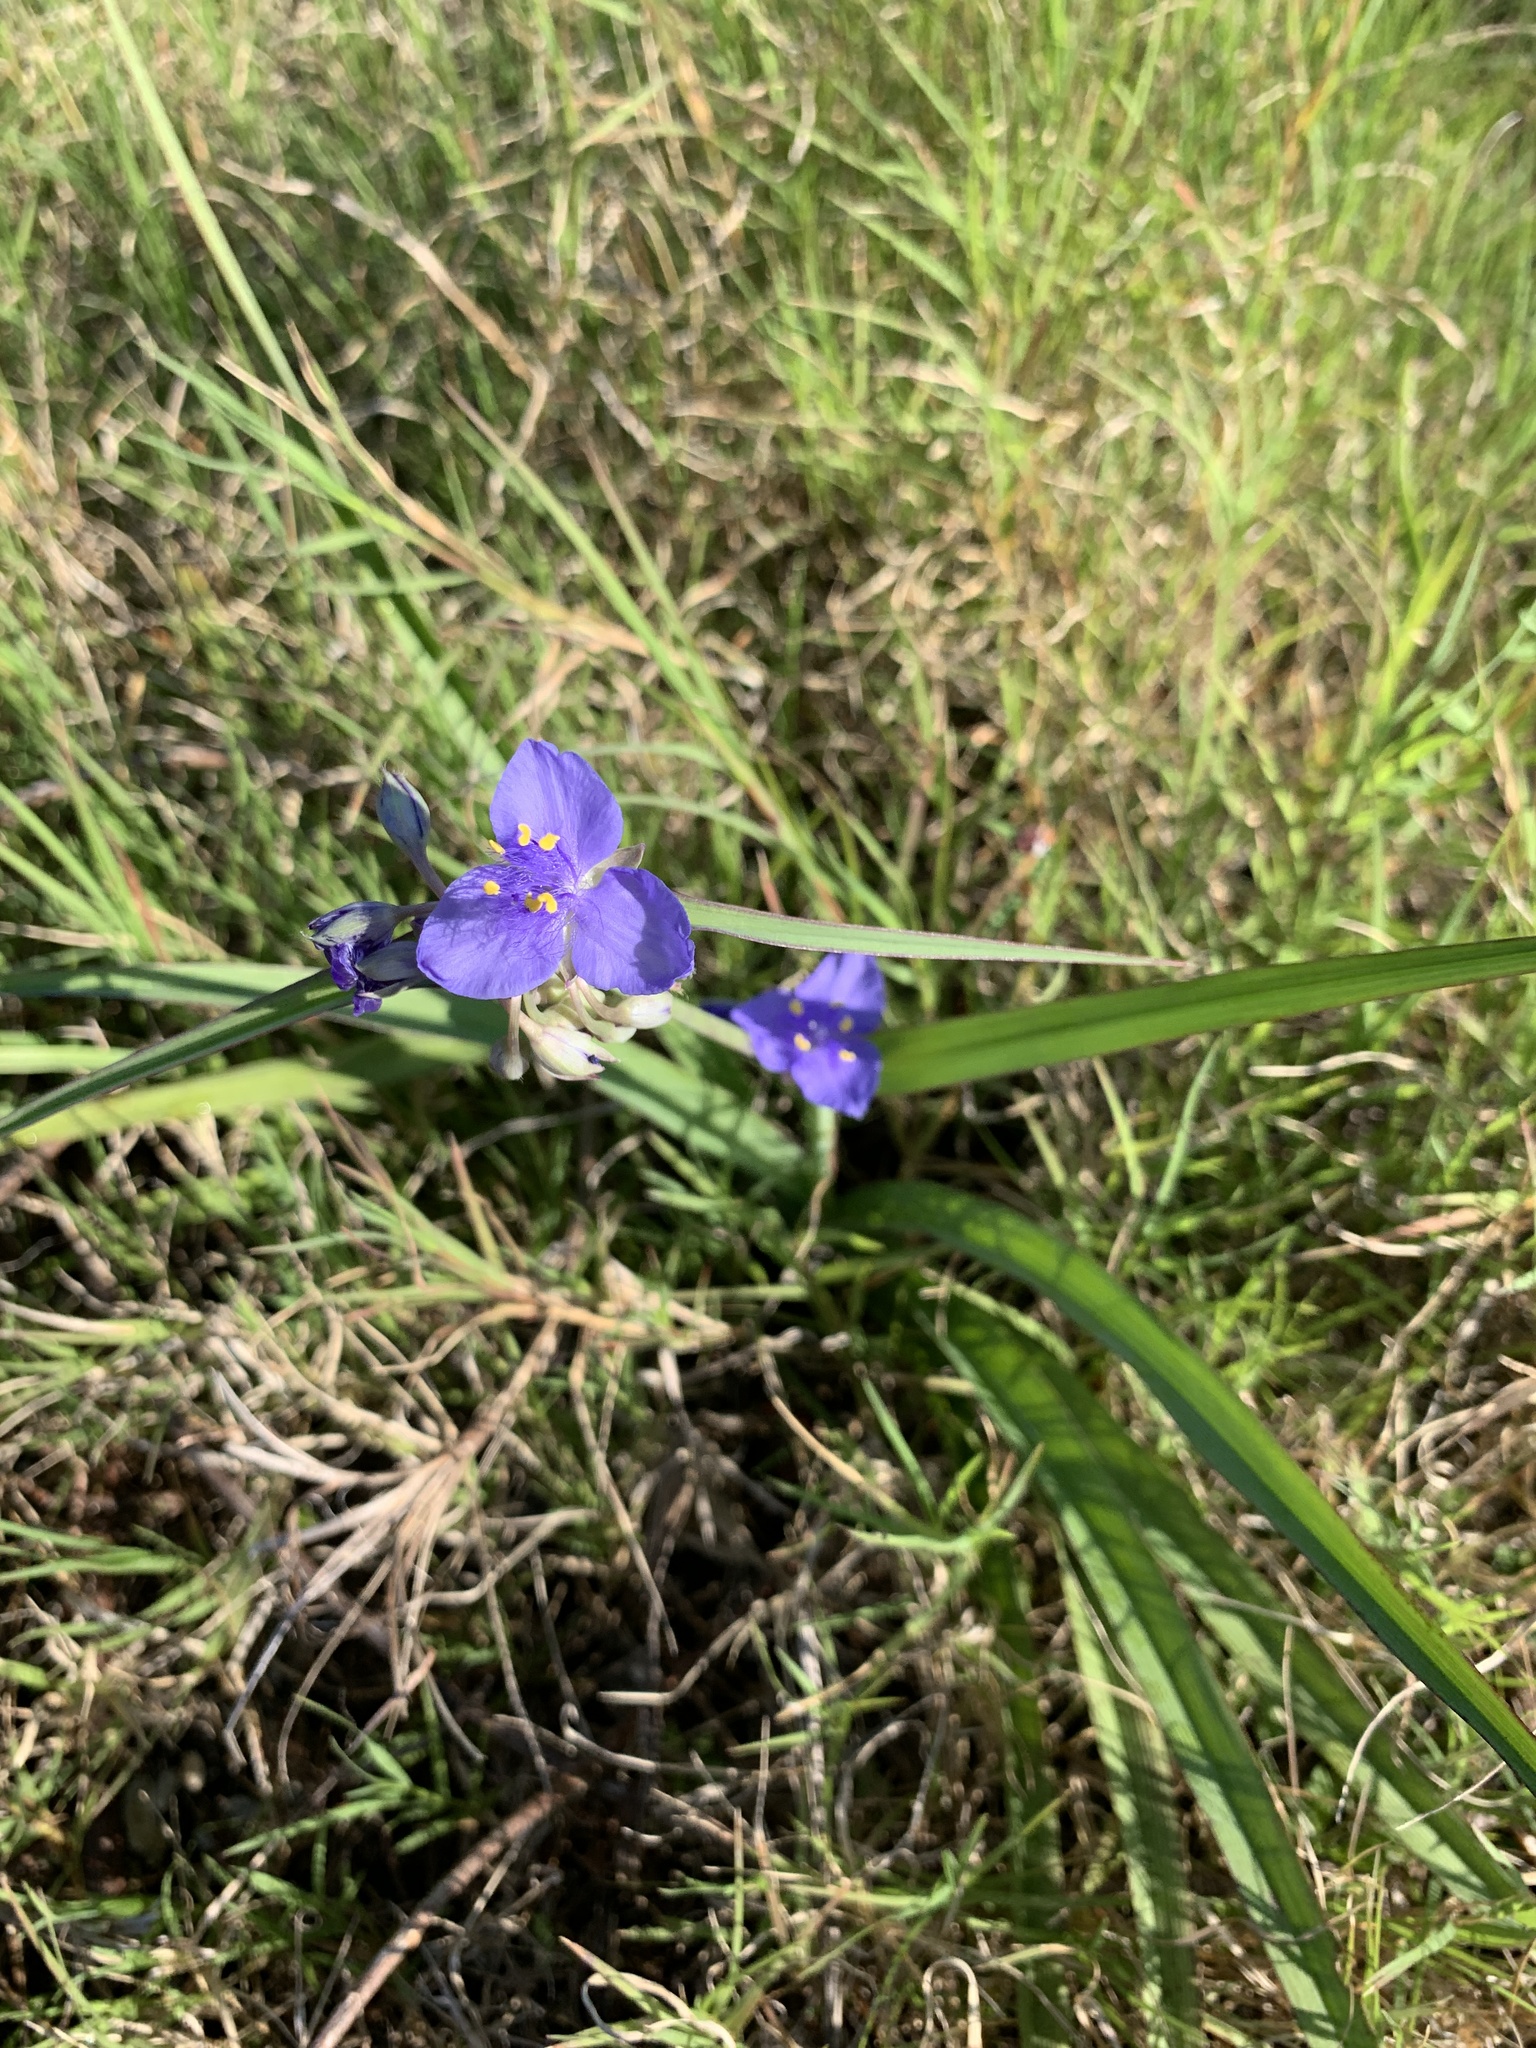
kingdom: Plantae
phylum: Tracheophyta
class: Liliopsida
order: Commelinales
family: Commelinaceae
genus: Tradescantia
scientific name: Tradescantia ohiensis
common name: Ohio spiderwort
